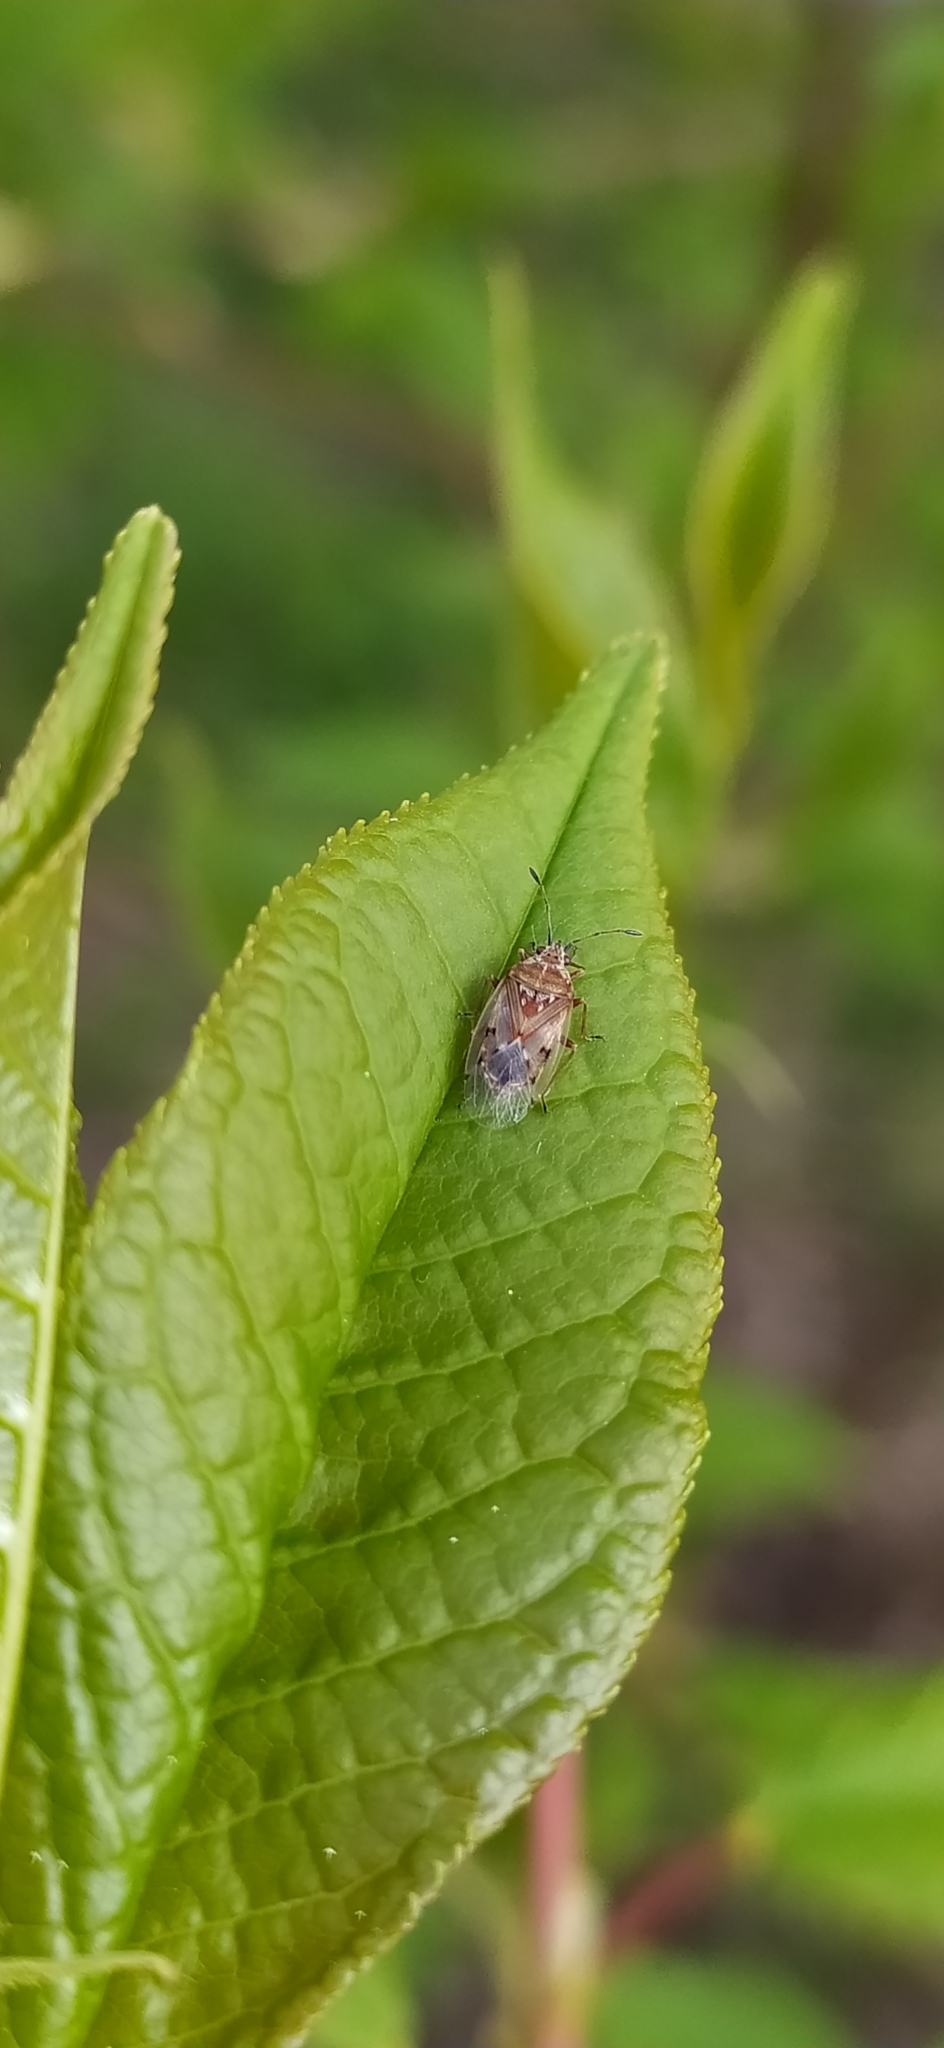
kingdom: Animalia
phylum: Arthropoda
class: Insecta
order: Hemiptera
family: Lygaeidae
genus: Kleidocerys
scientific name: Kleidocerys resedae
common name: Birch catkin bug
